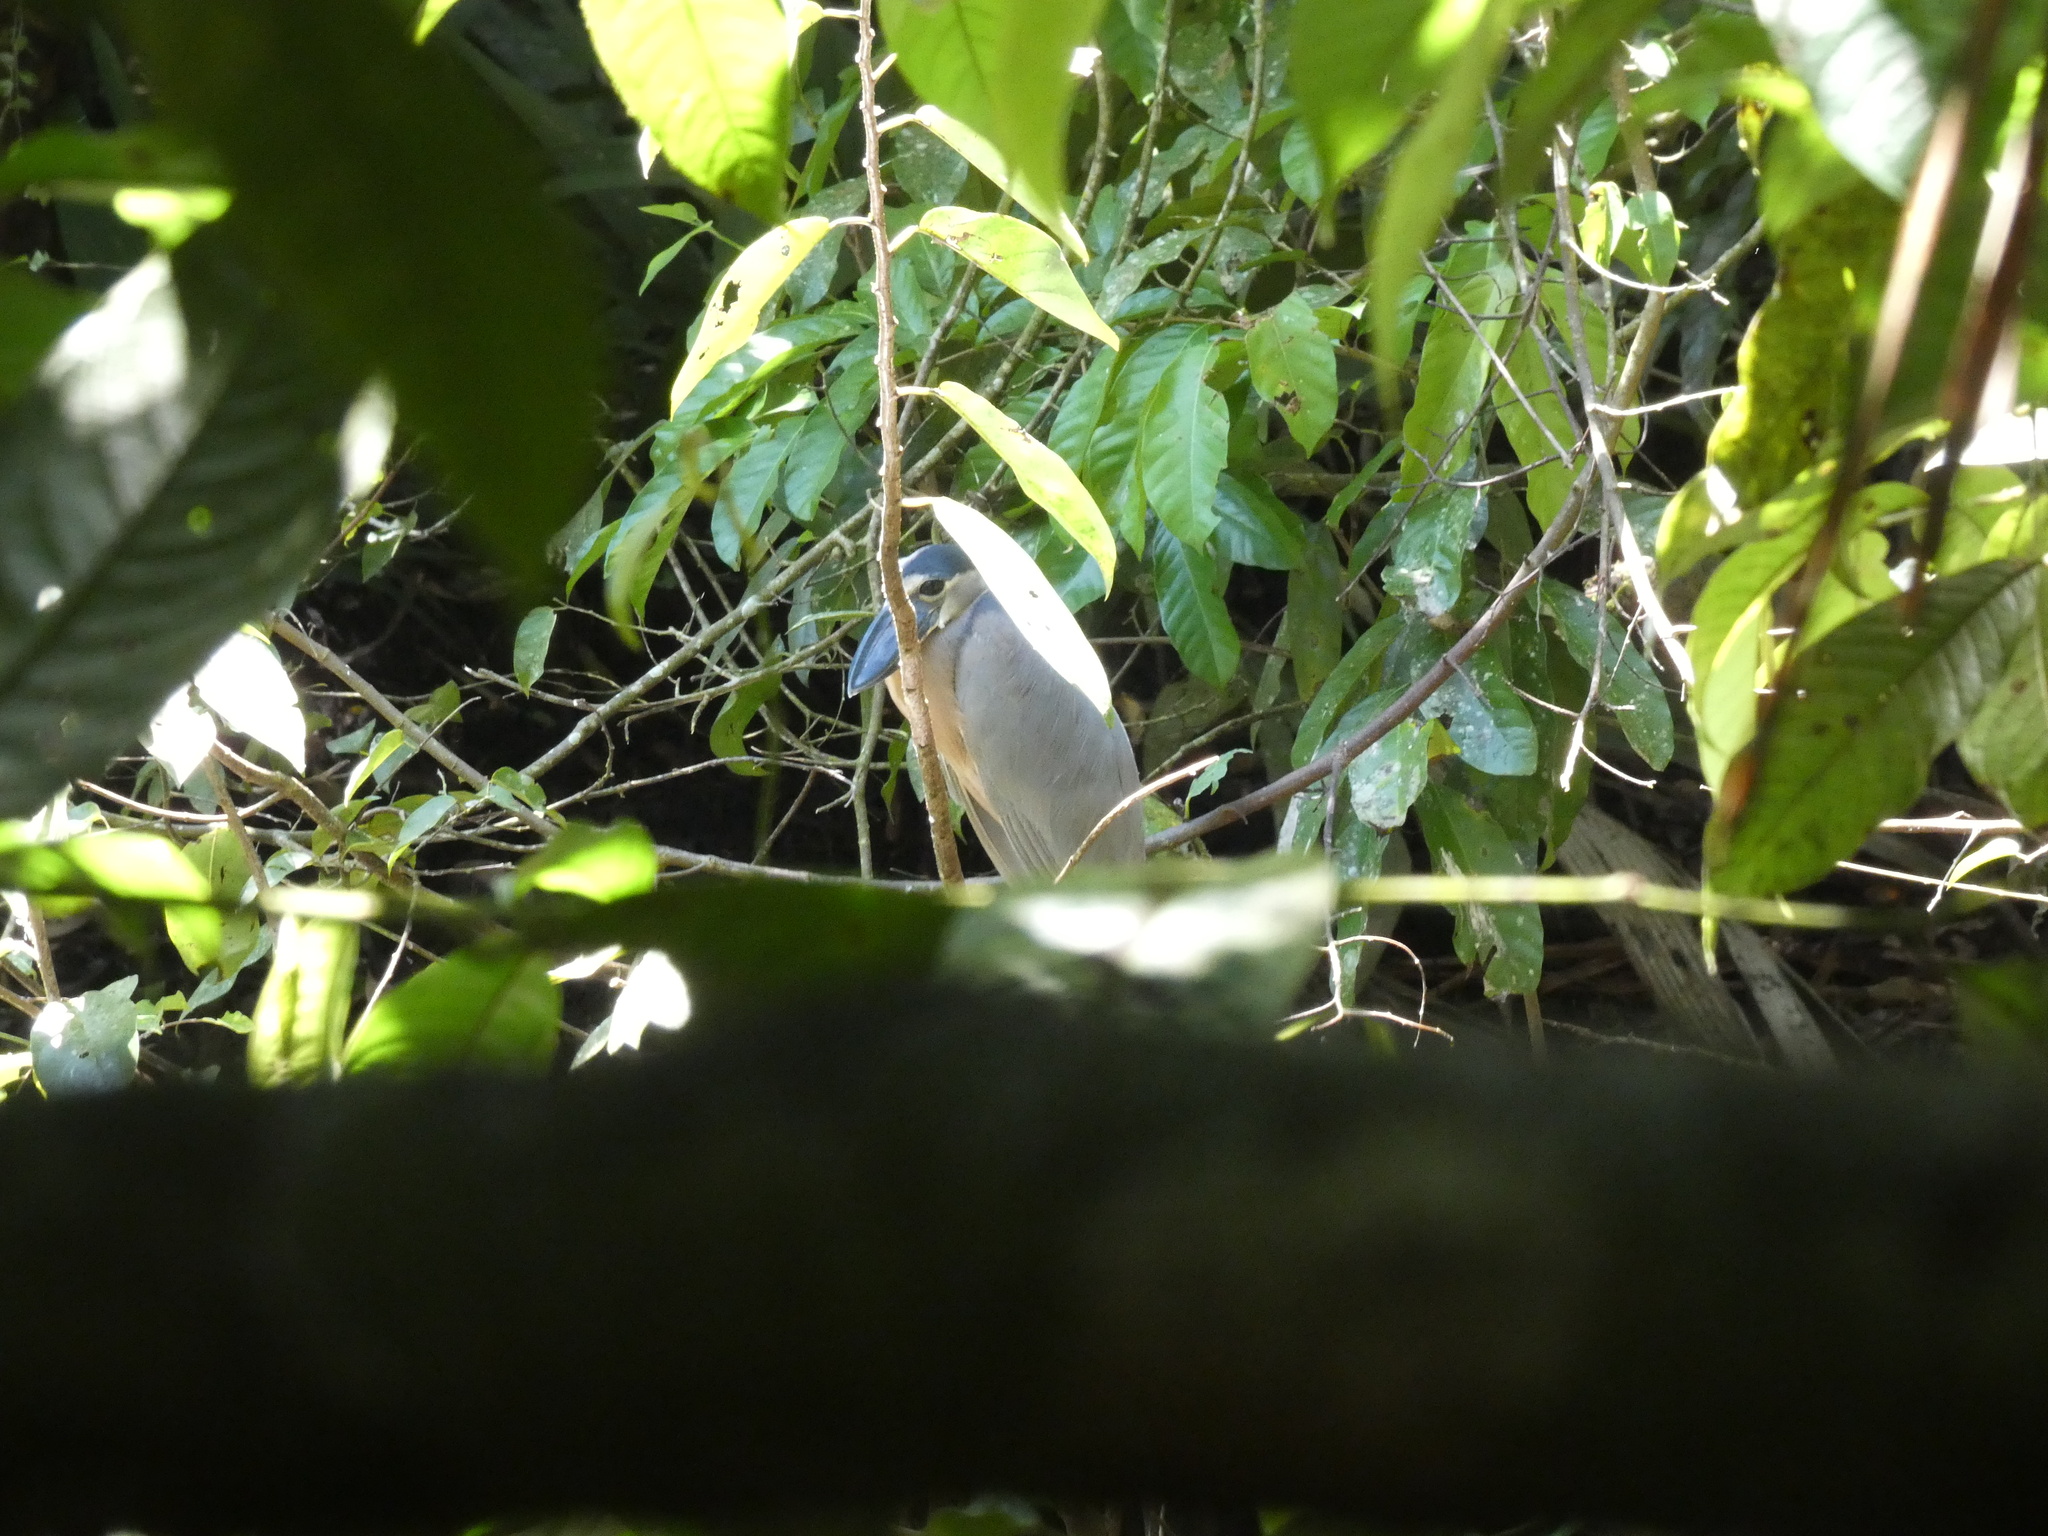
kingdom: Animalia
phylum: Chordata
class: Aves
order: Pelecaniformes
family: Ardeidae
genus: Cochlearius
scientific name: Cochlearius cochlearius
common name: Boat-billed heron
